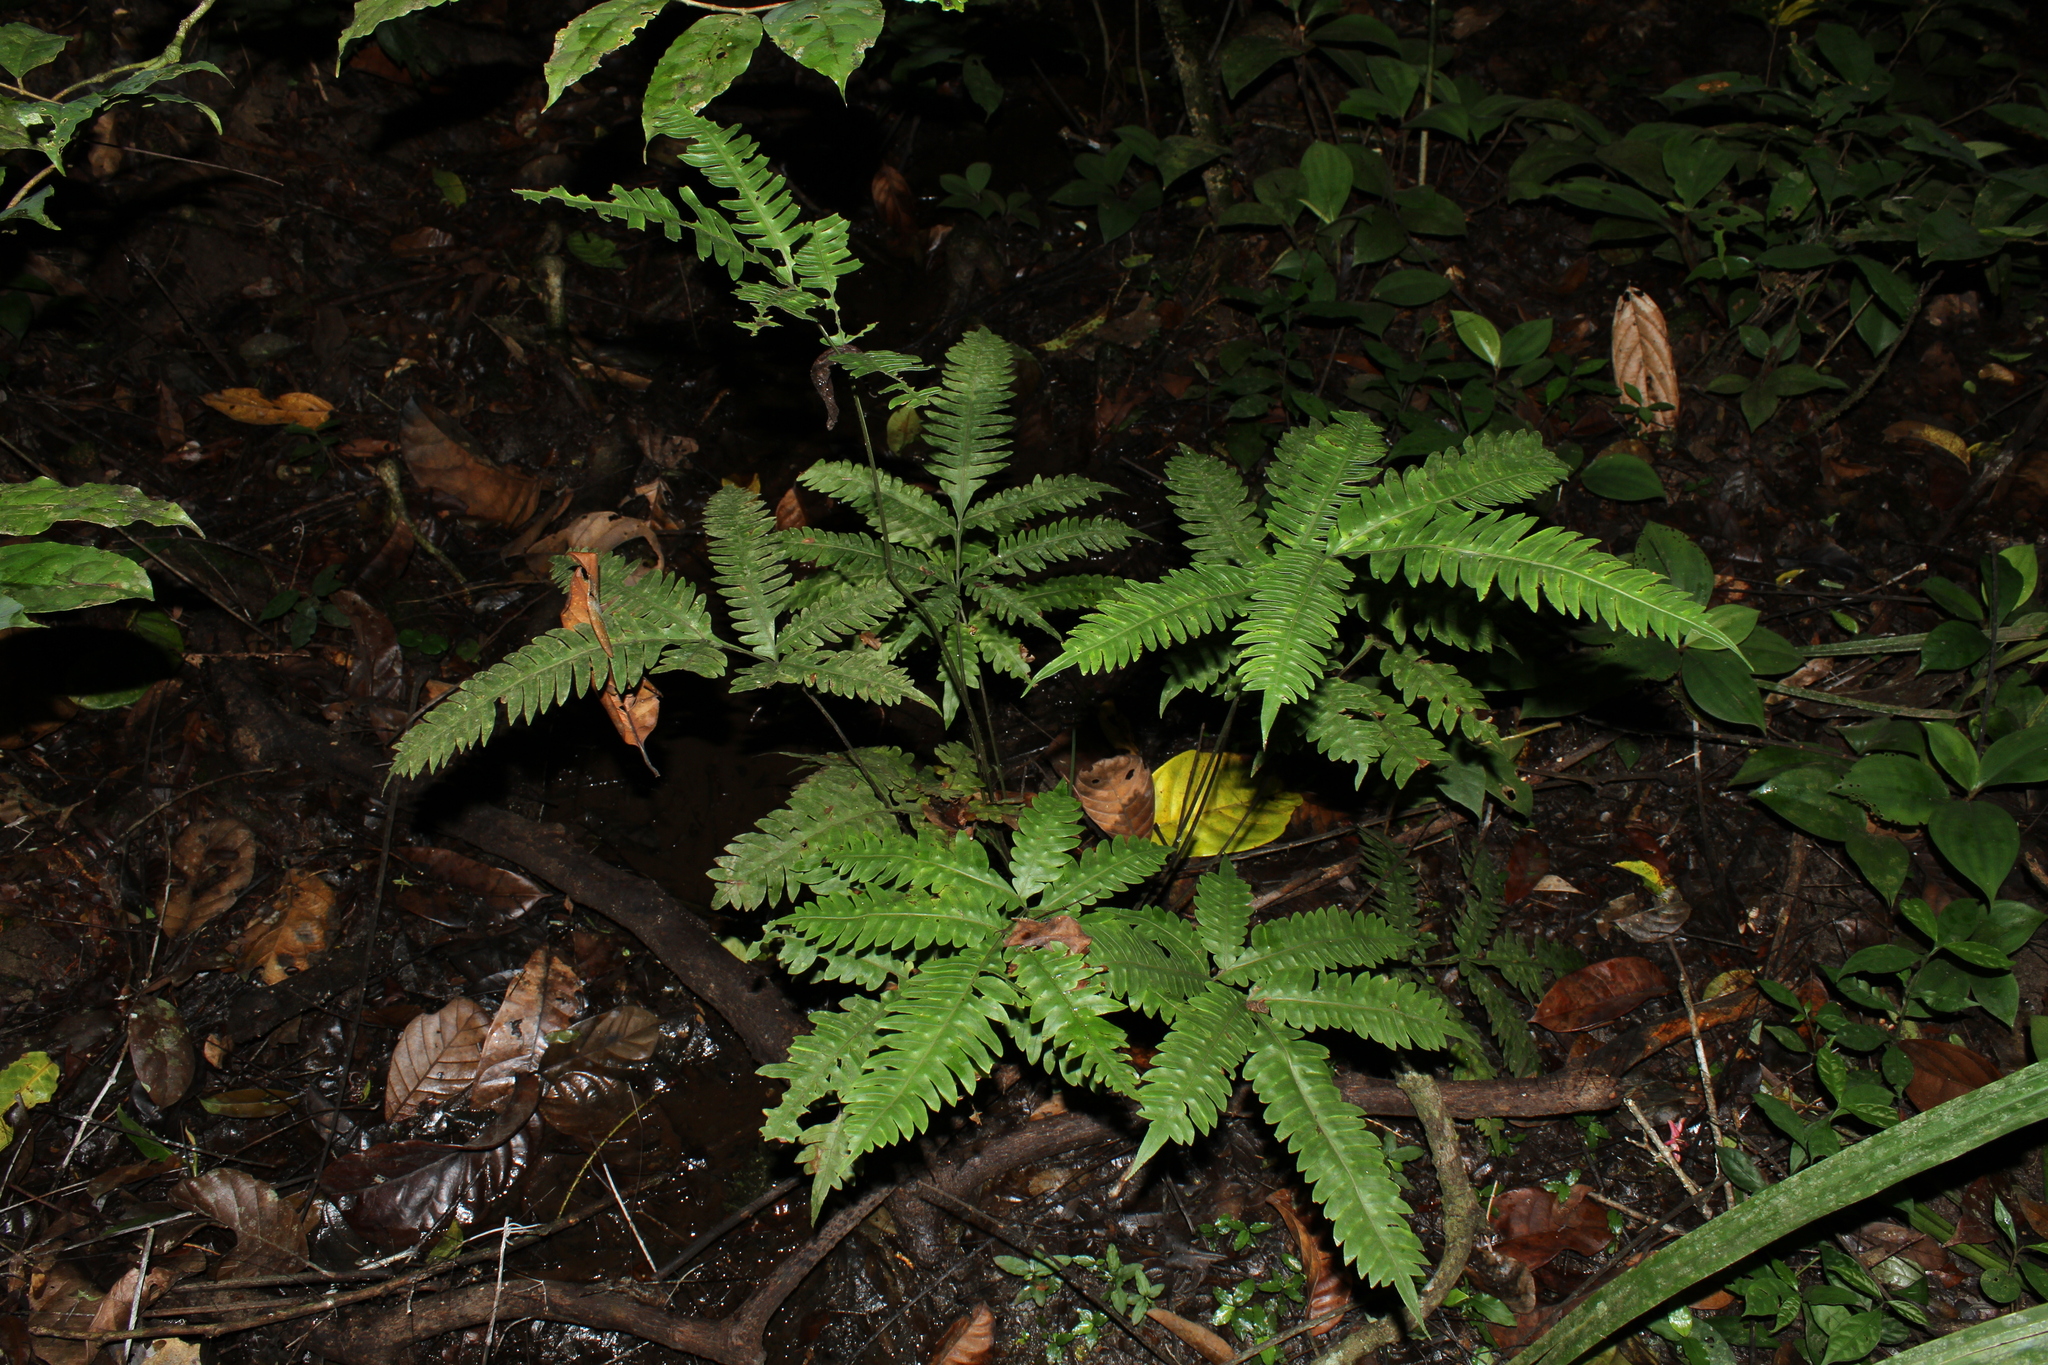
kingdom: Plantae
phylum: Tracheophyta
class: Polypodiopsida
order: Polypodiales
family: Pteridaceae
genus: Pteris
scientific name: Pteris burtonii
